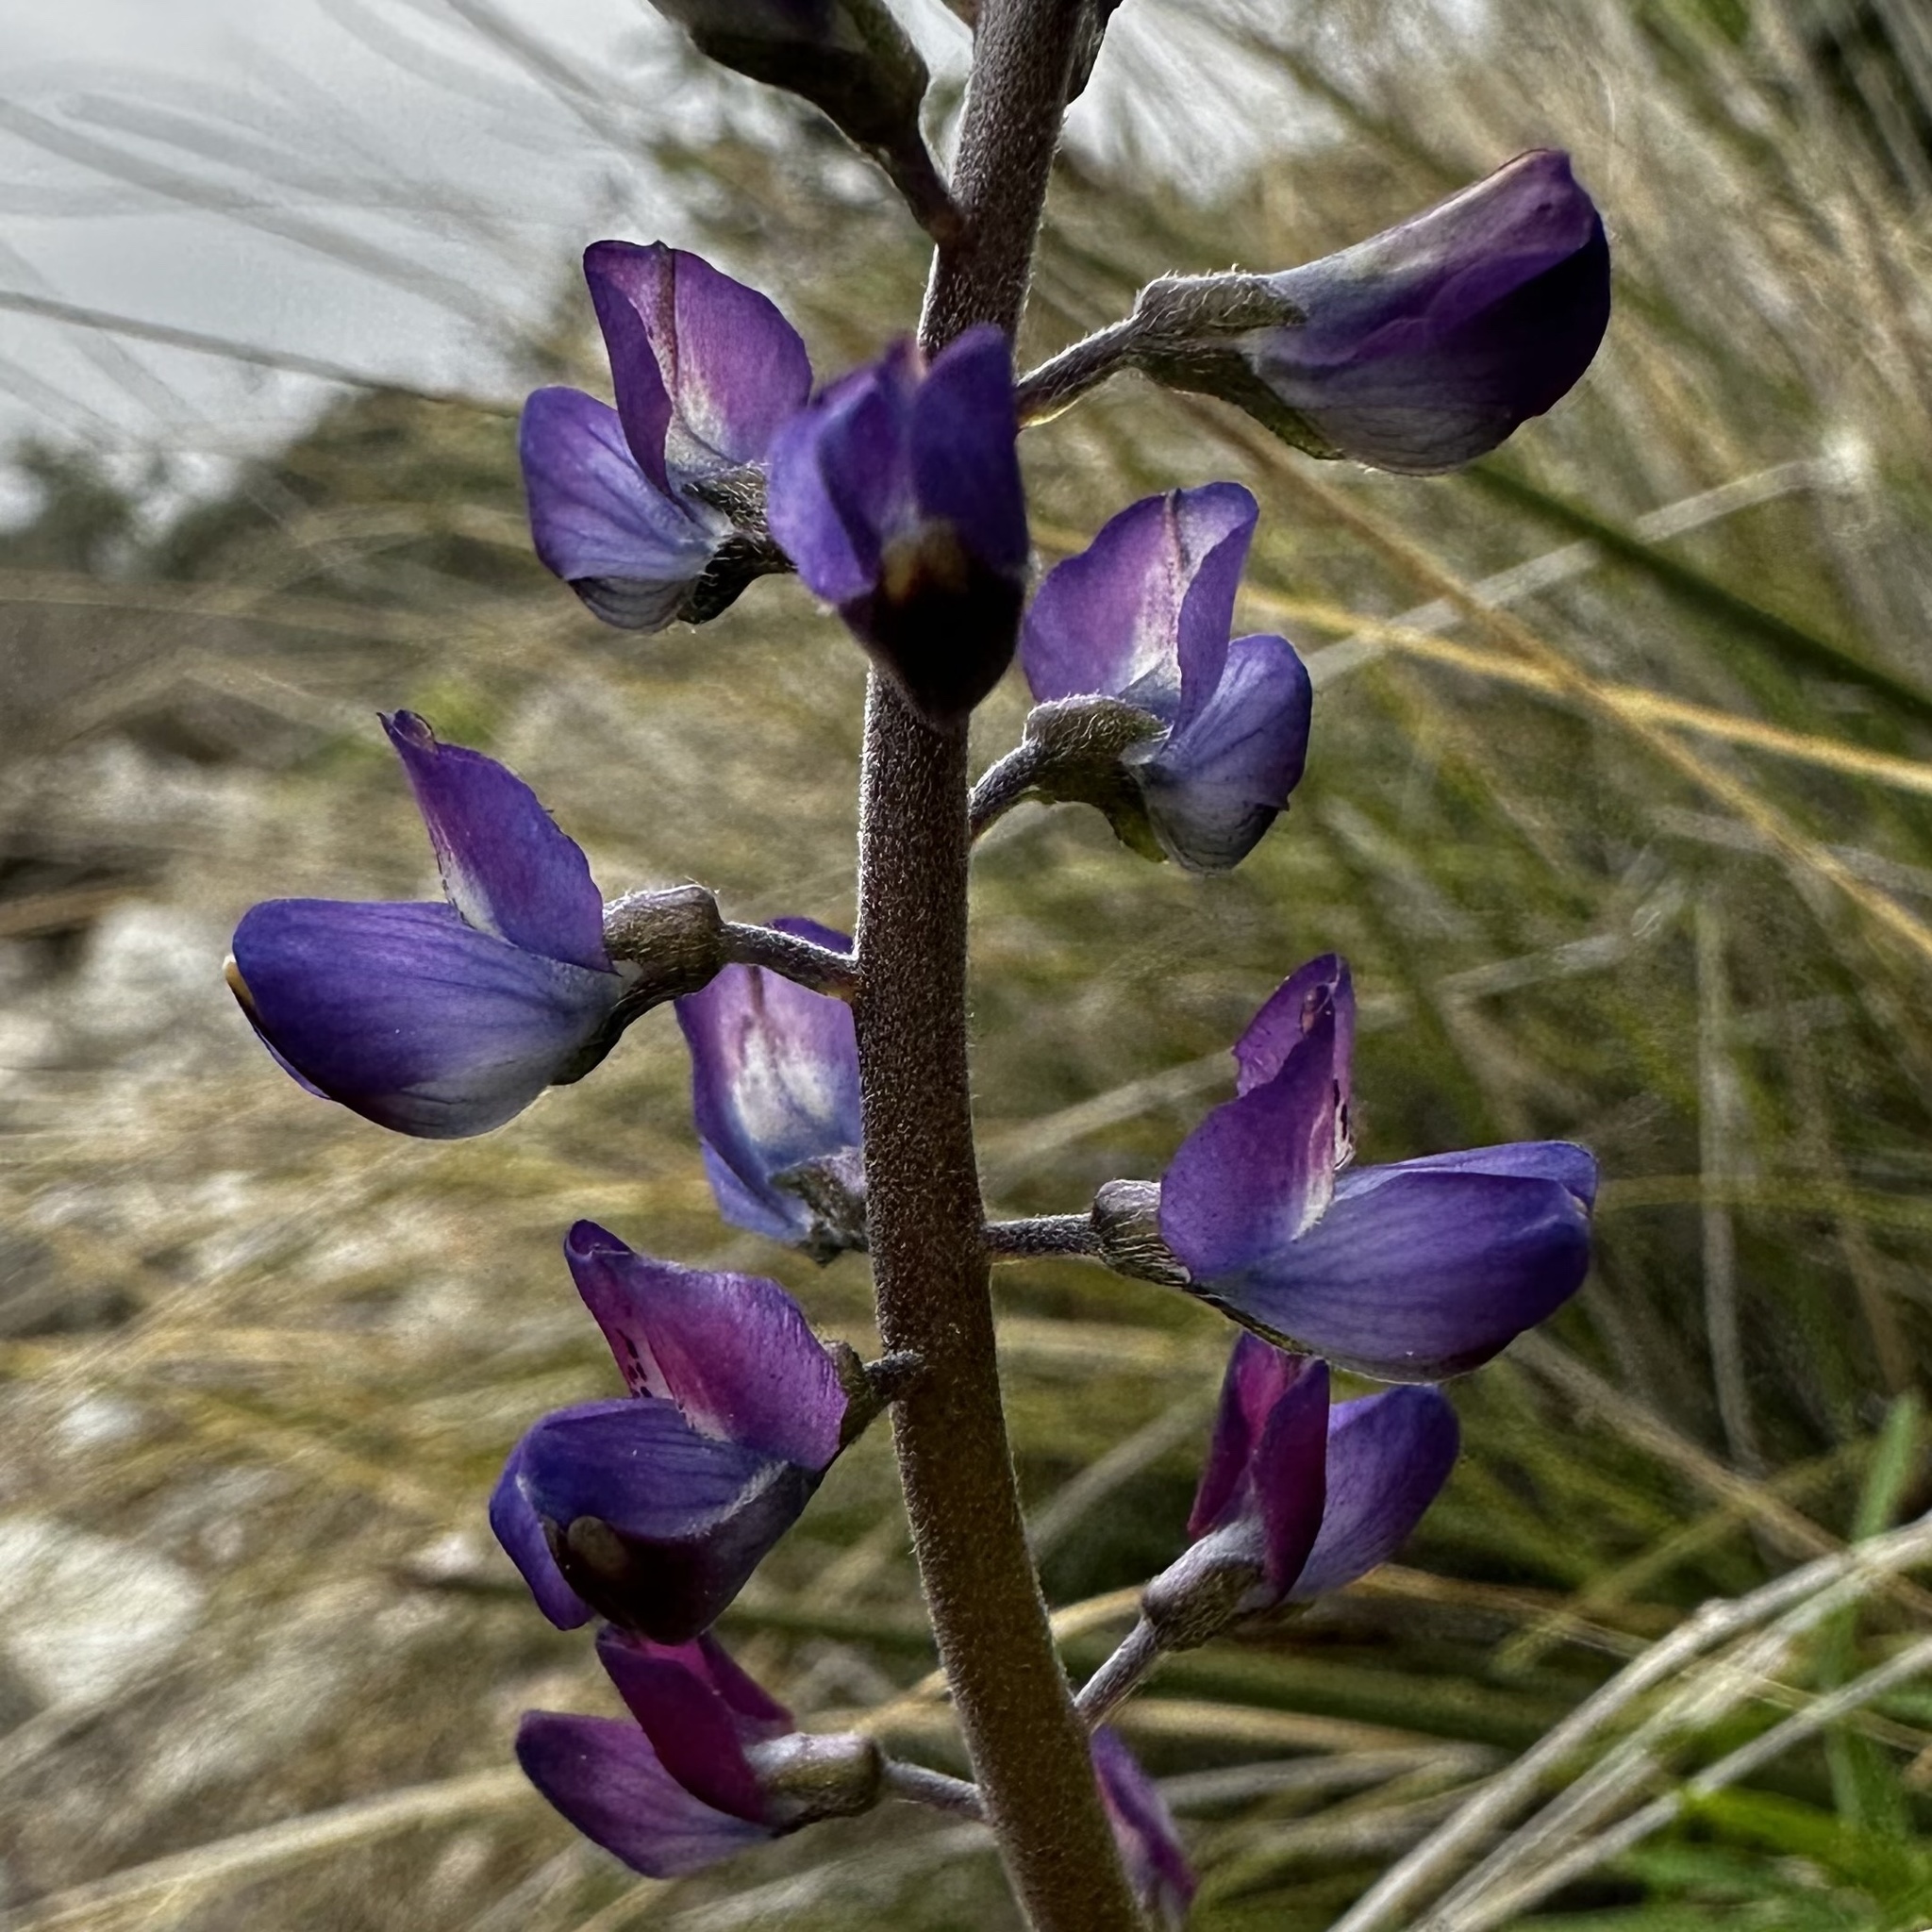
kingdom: Plantae
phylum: Tracheophyta
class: Magnoliopsida
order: Fabales
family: Fabaceae
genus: Lupinus
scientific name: Lupinus truncatus
